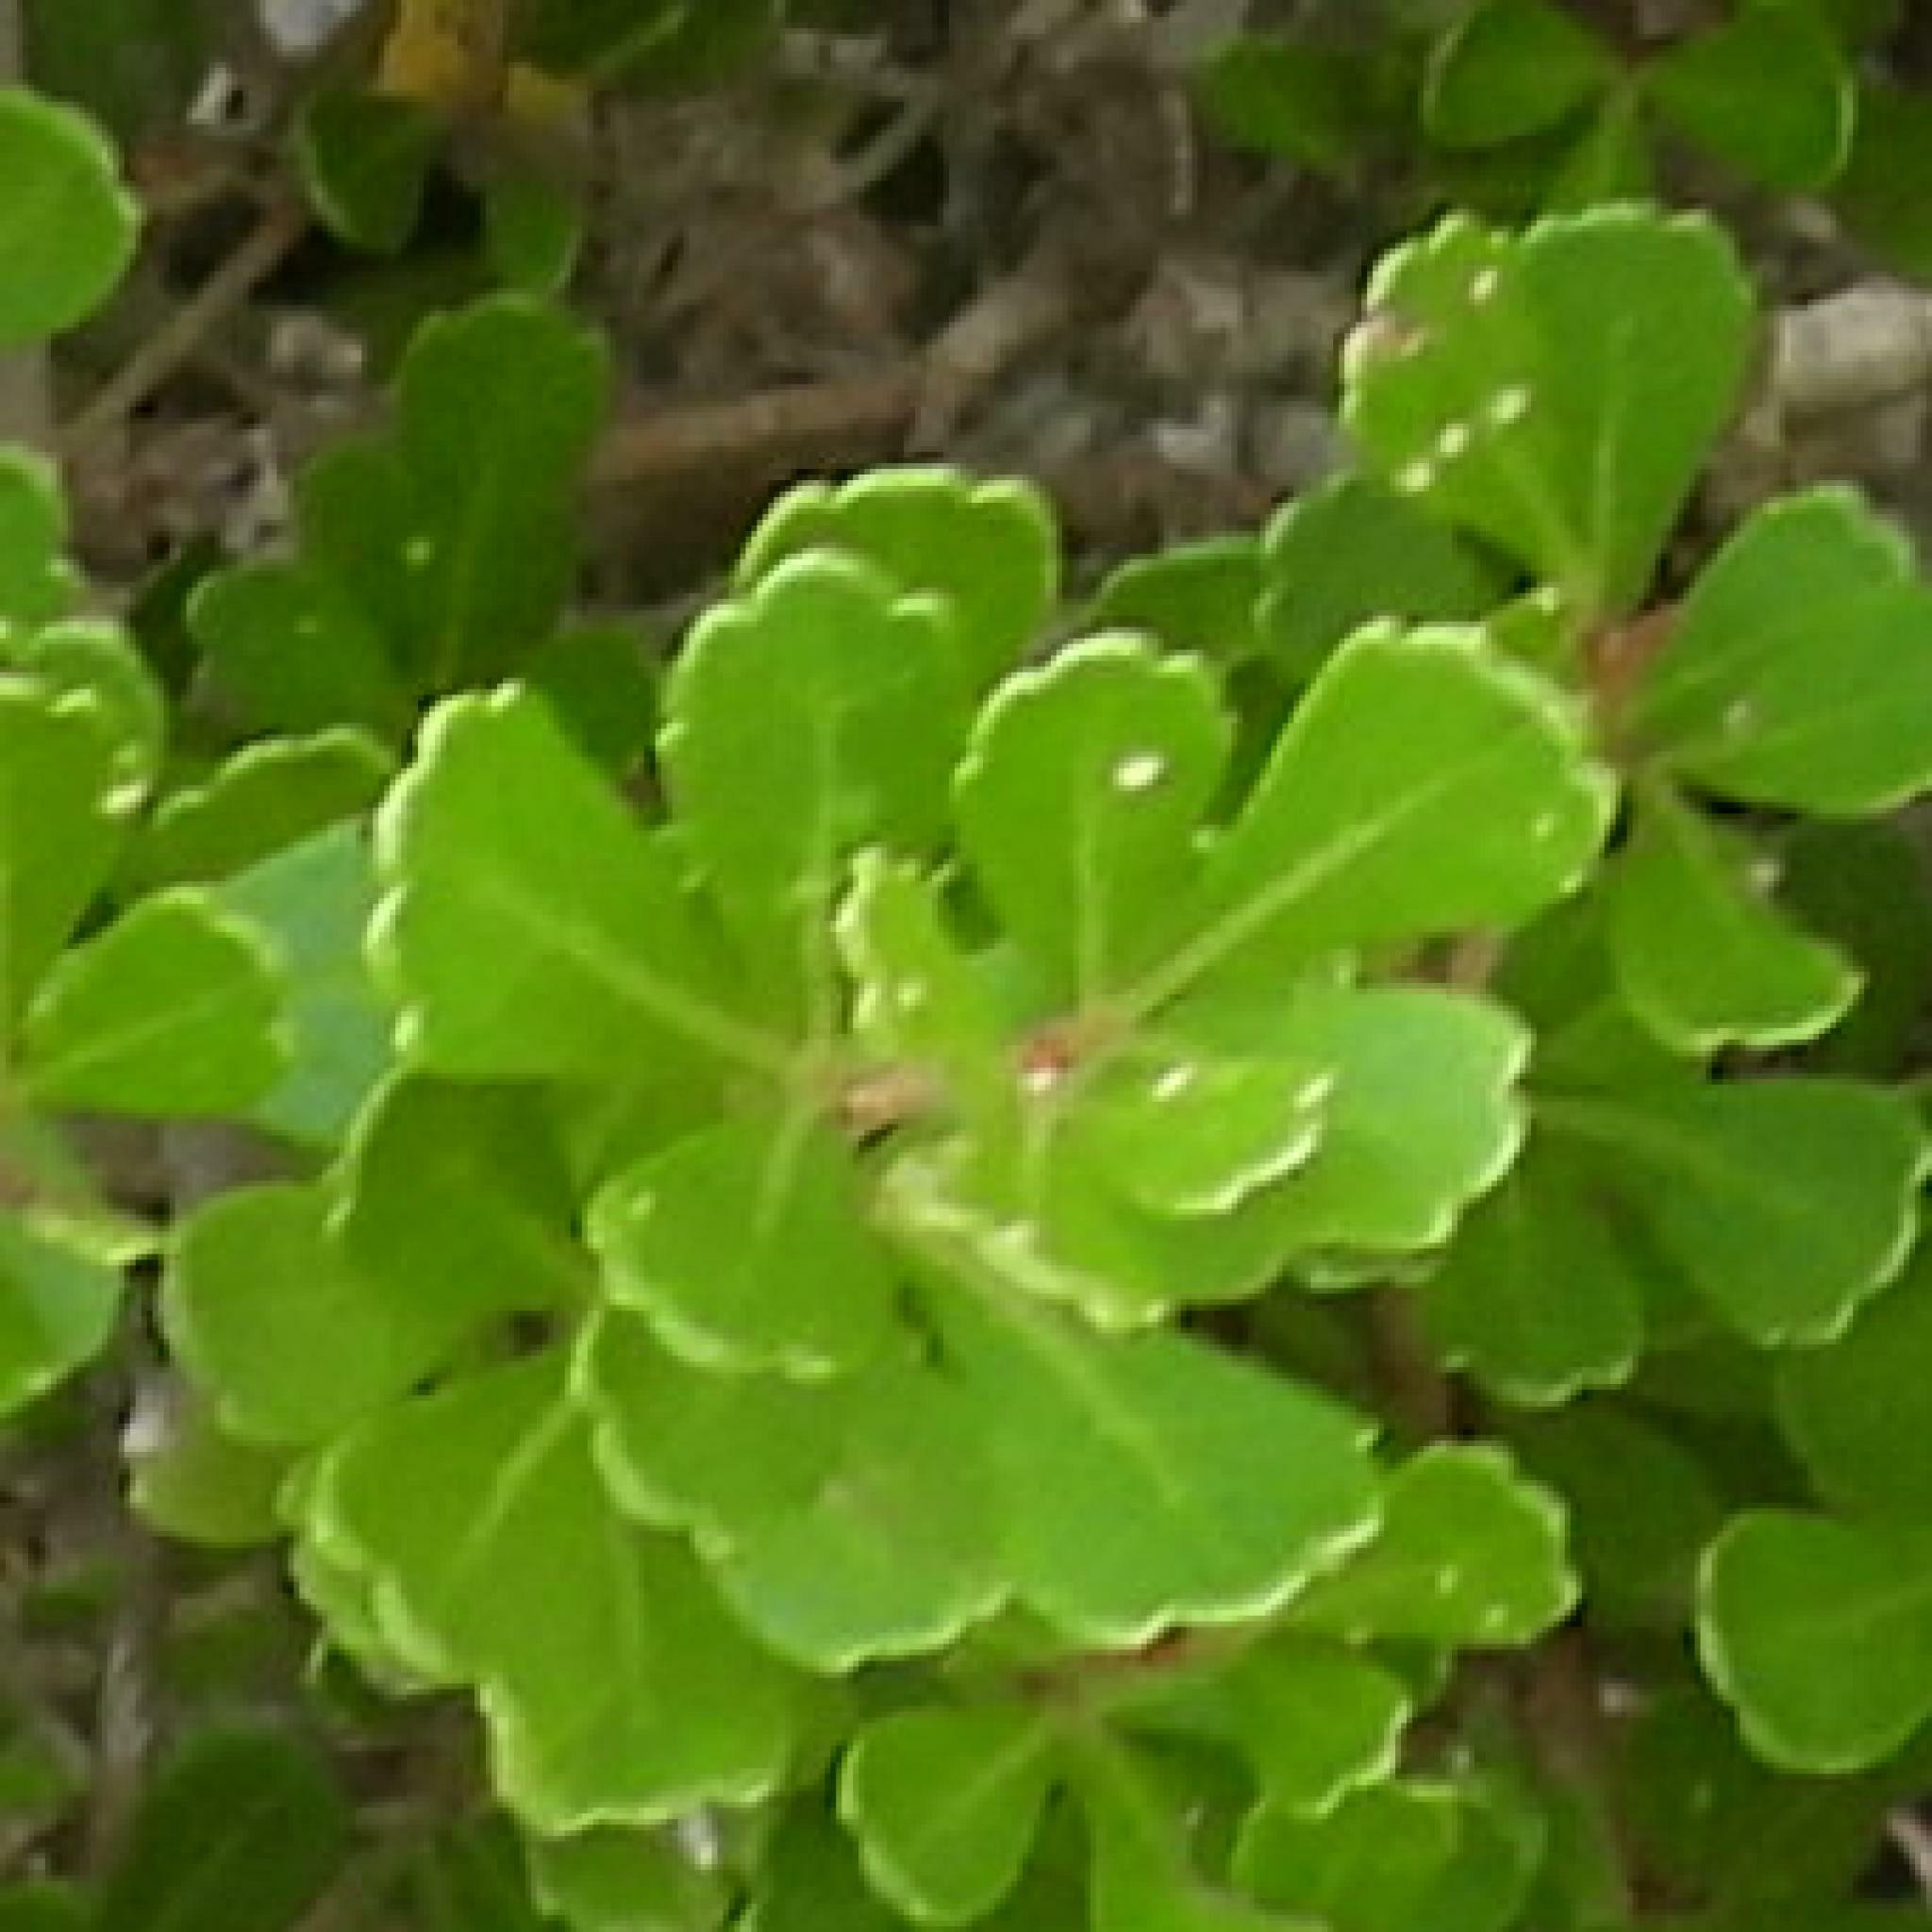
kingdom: Plantae
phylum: Tracheophyta
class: Magnoliopsida
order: Sapindales
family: Anacardiaceae
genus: Searsia
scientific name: Searsia crenata
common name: Crowberry
